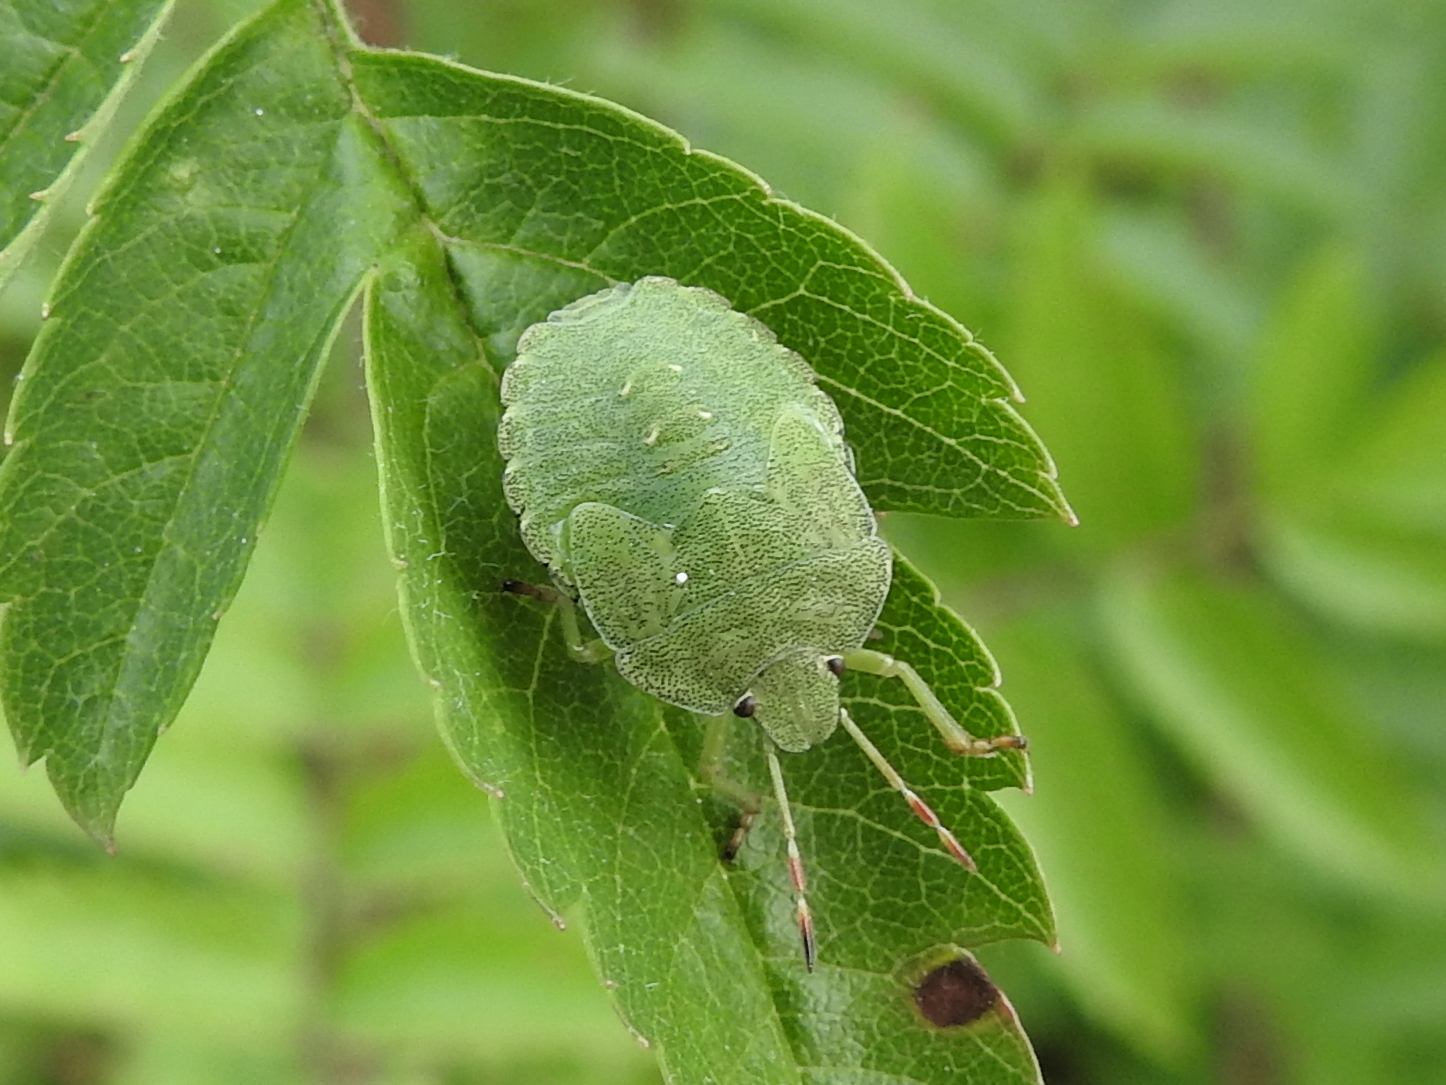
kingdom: Animalia
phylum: Arthropoda
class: Insecta
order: Hemiptera
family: Pentatomidae
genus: Palomena
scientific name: Palomena prasina
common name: Green shieldbug
